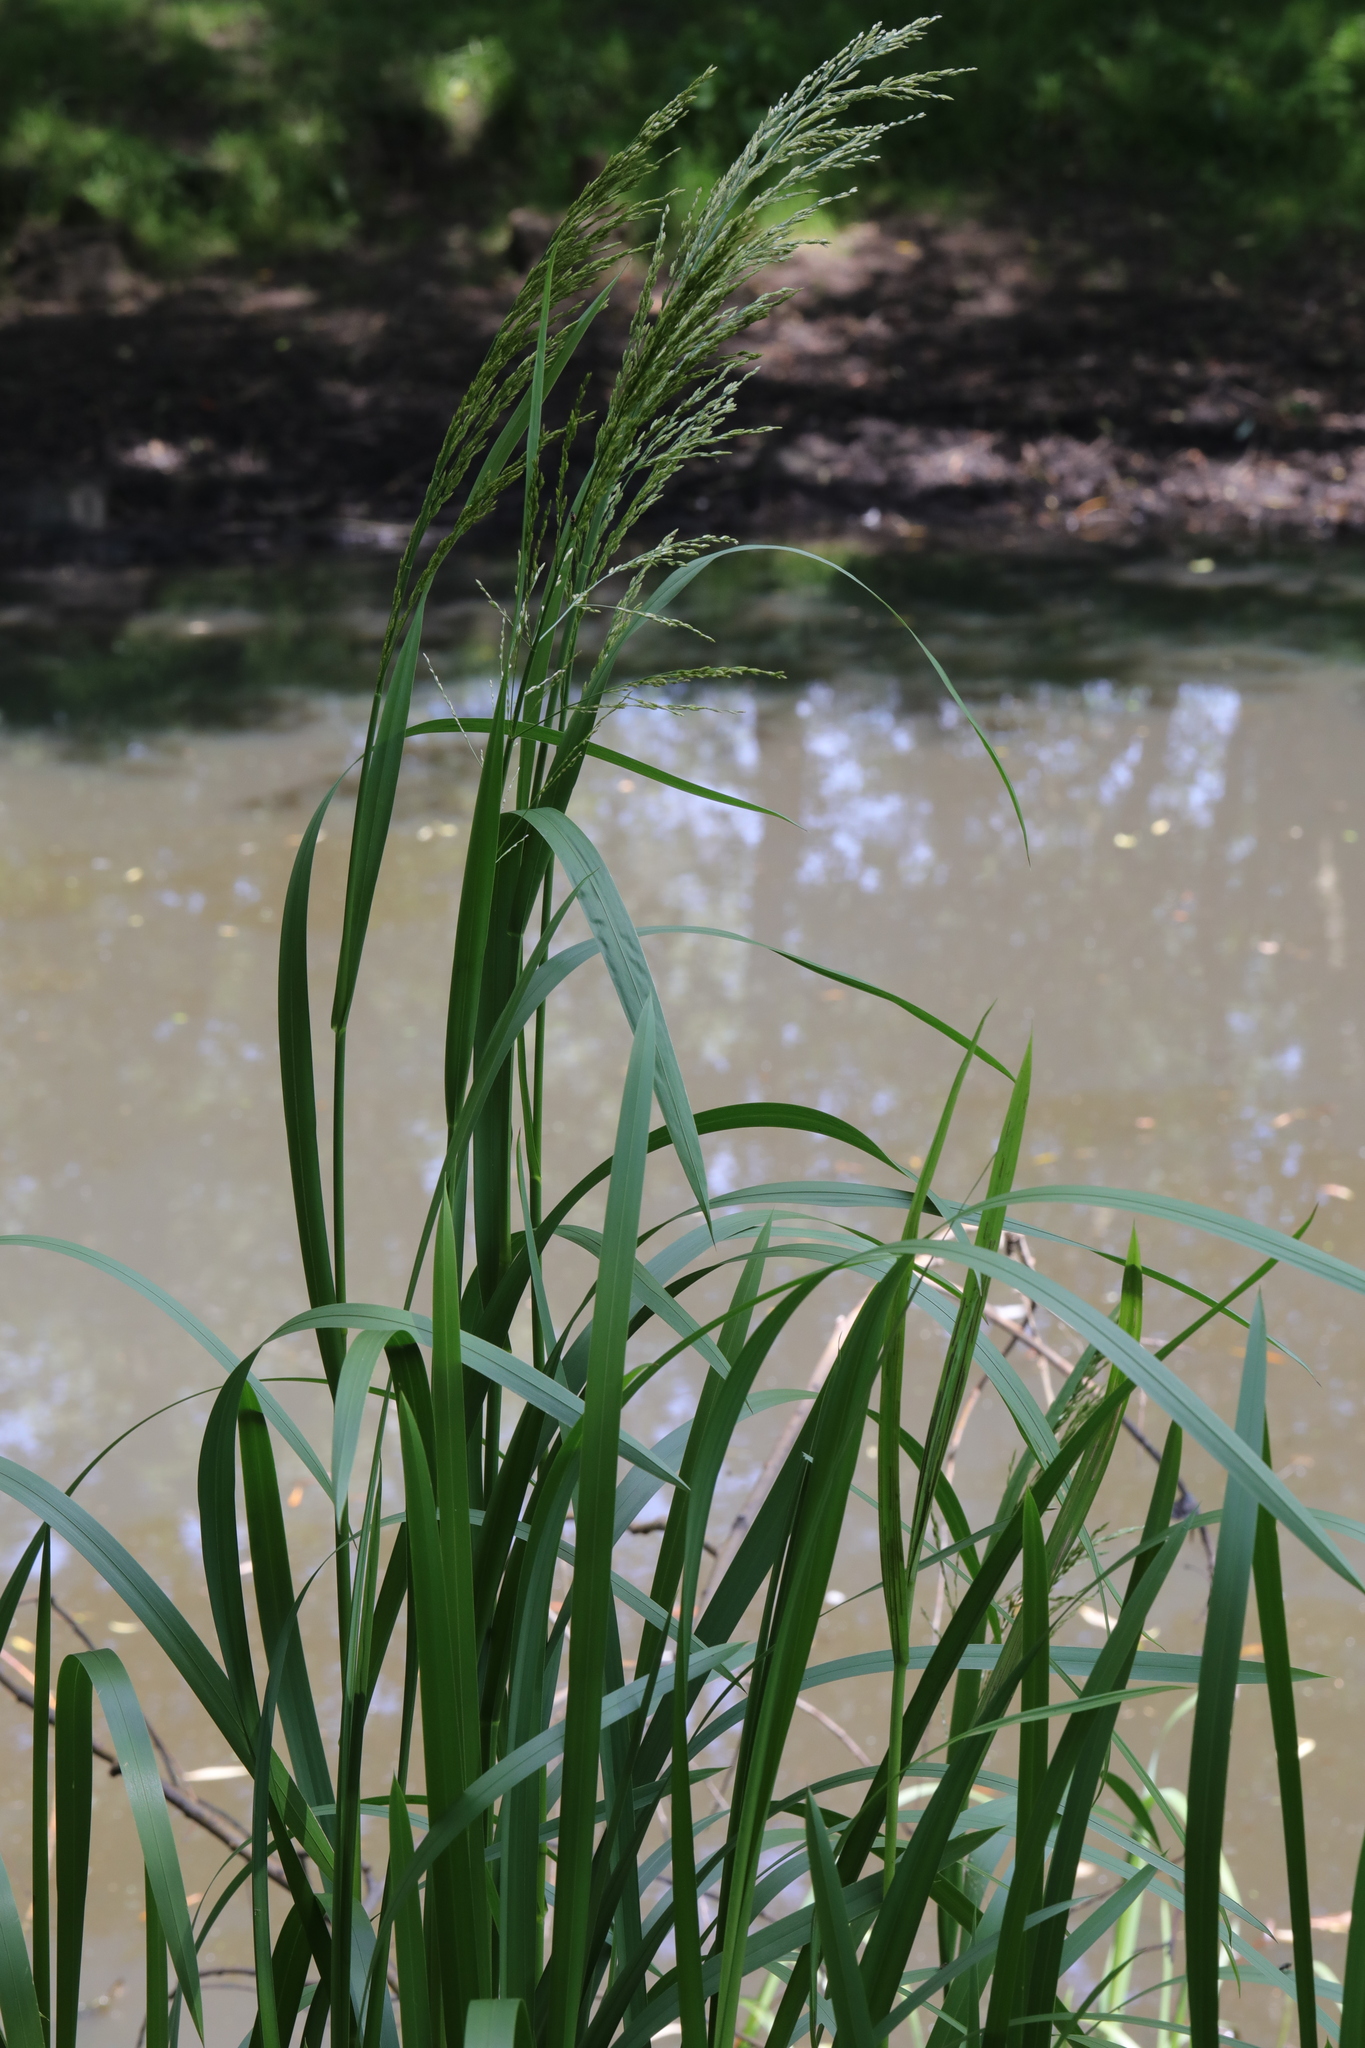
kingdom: Plantae
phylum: Tracheophyta
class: Liliopsida
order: Poales
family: Poaceae
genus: Glyceria
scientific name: Glyceria maxima
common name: Reed mannagrass
